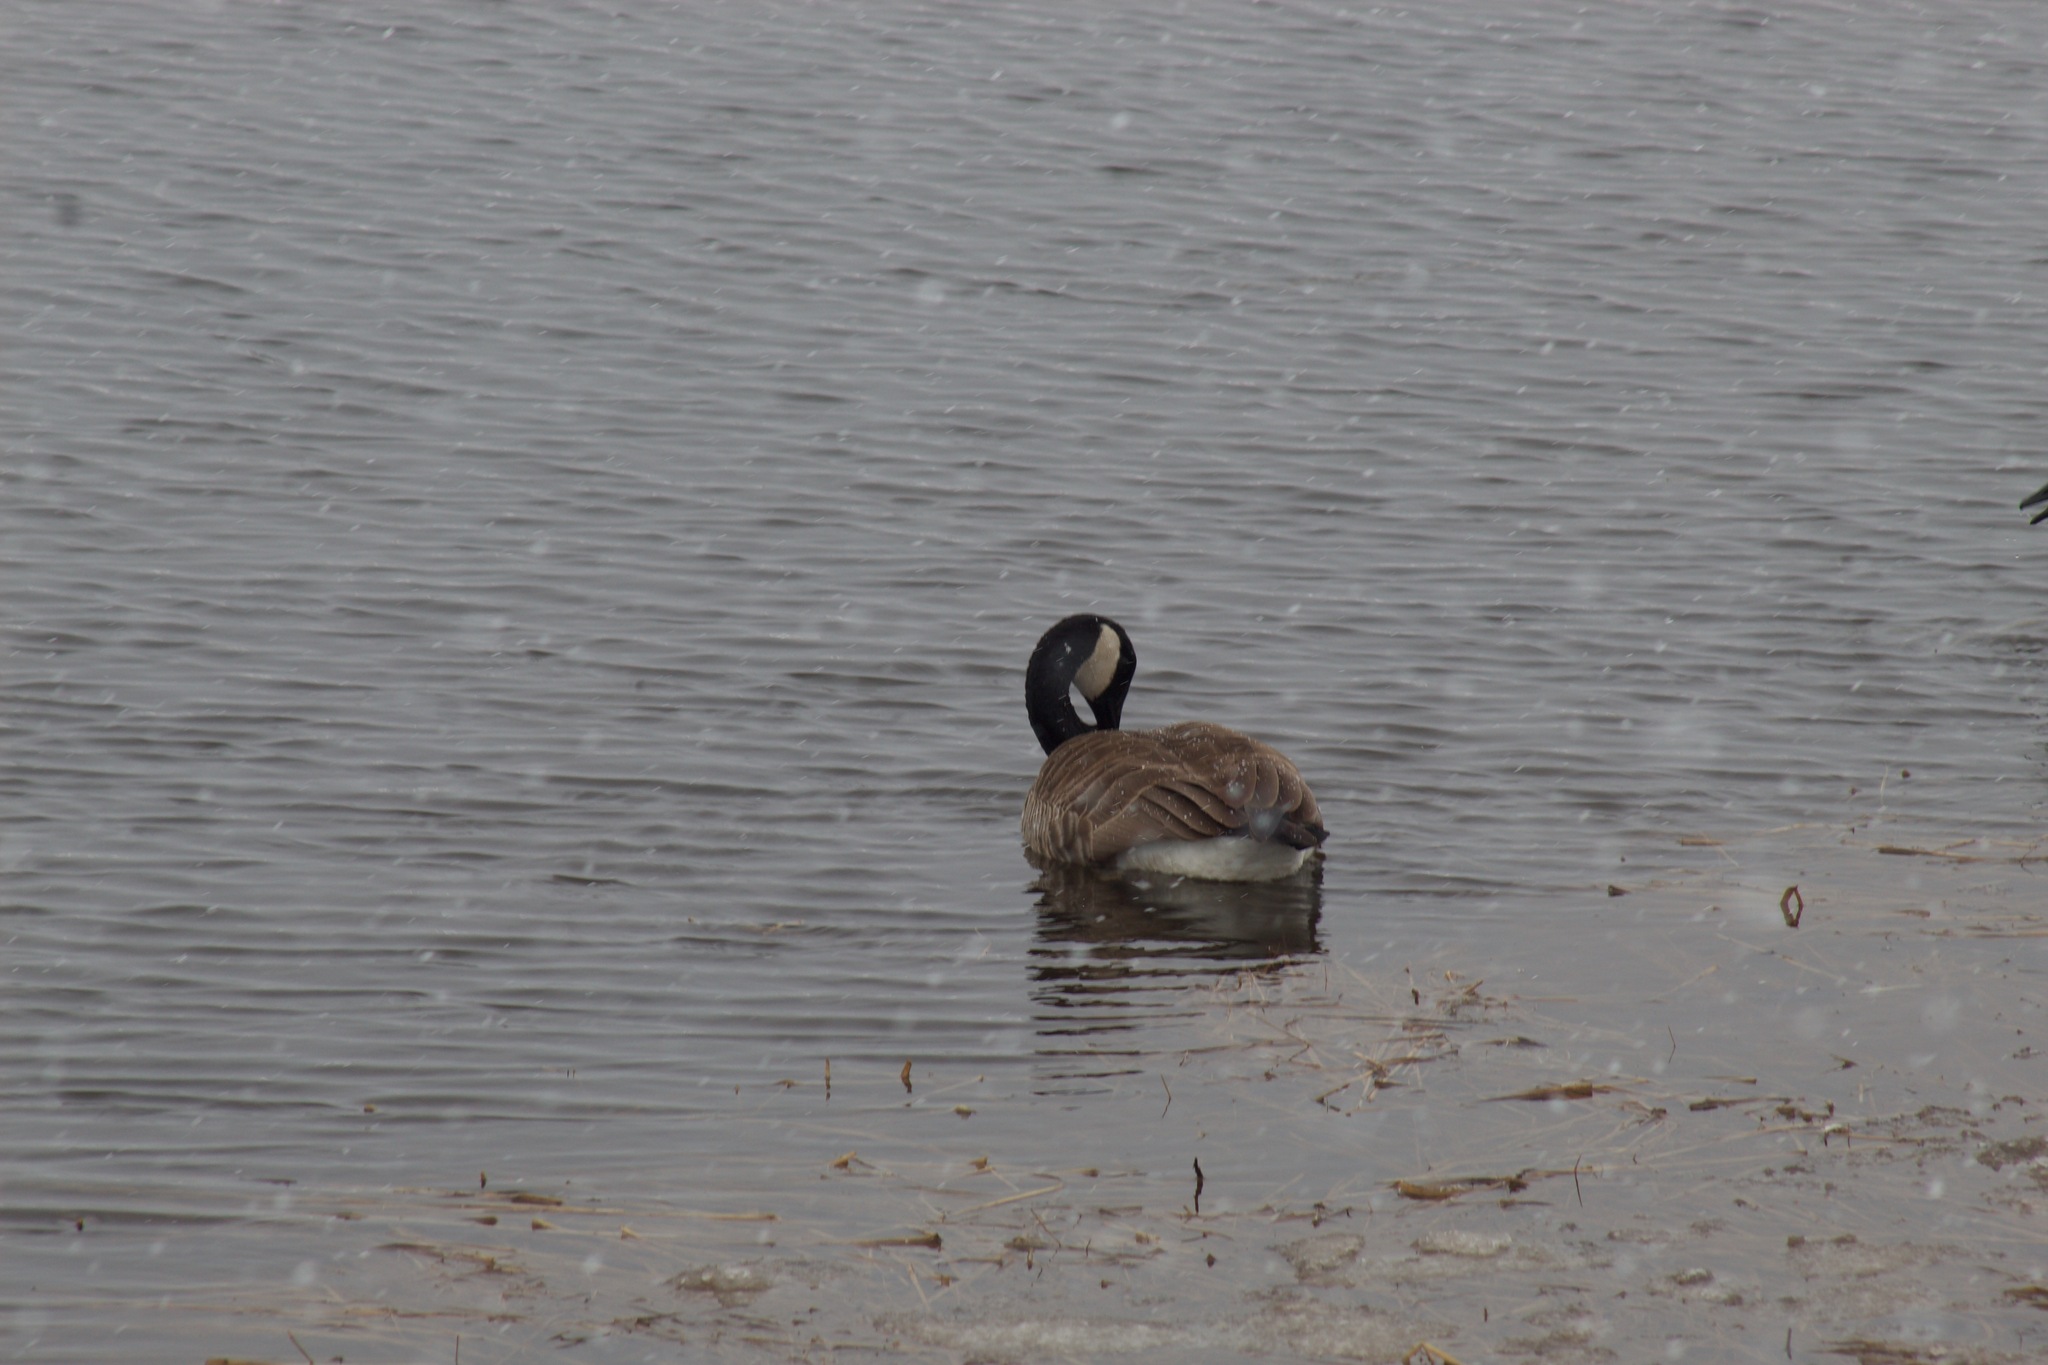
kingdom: Animalia
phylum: Chordata
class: Aves
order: Anseriformes
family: Anatidae
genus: Branta
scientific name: Branta canadensis
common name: Canada goose
